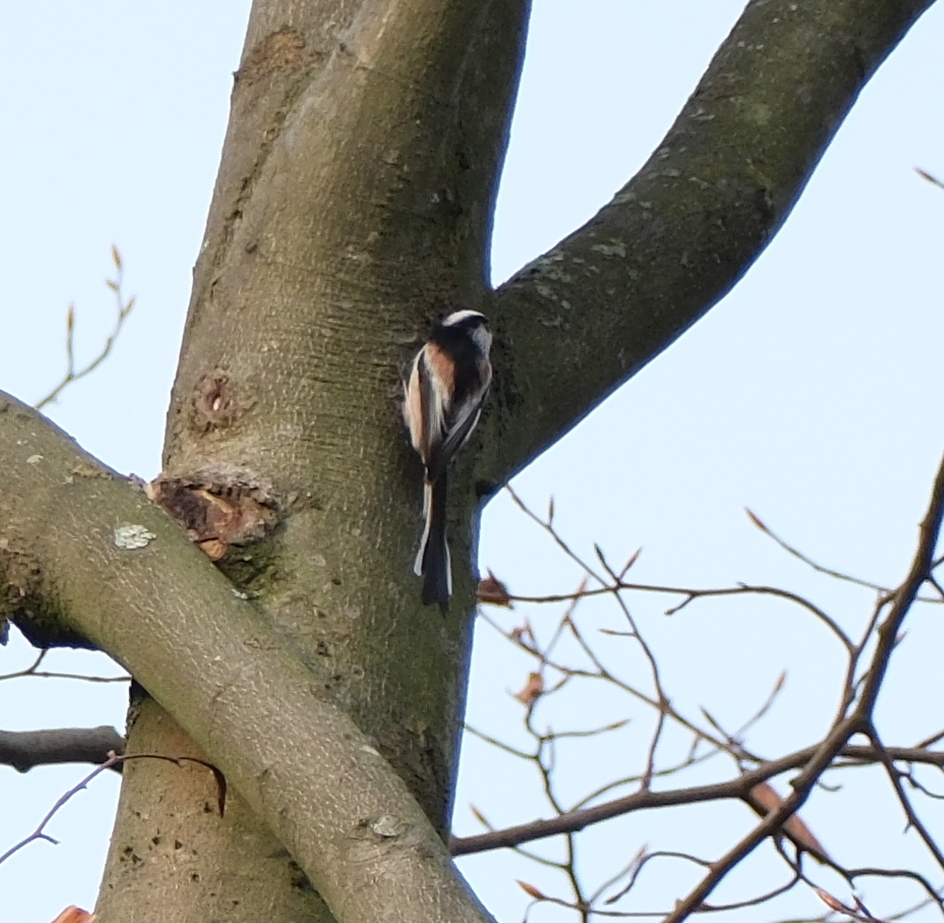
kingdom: Animalia
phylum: Chordata
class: Aves
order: Passeriformes
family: Aegithalidae
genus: Aegithalos
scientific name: Aegithalos caudatus
